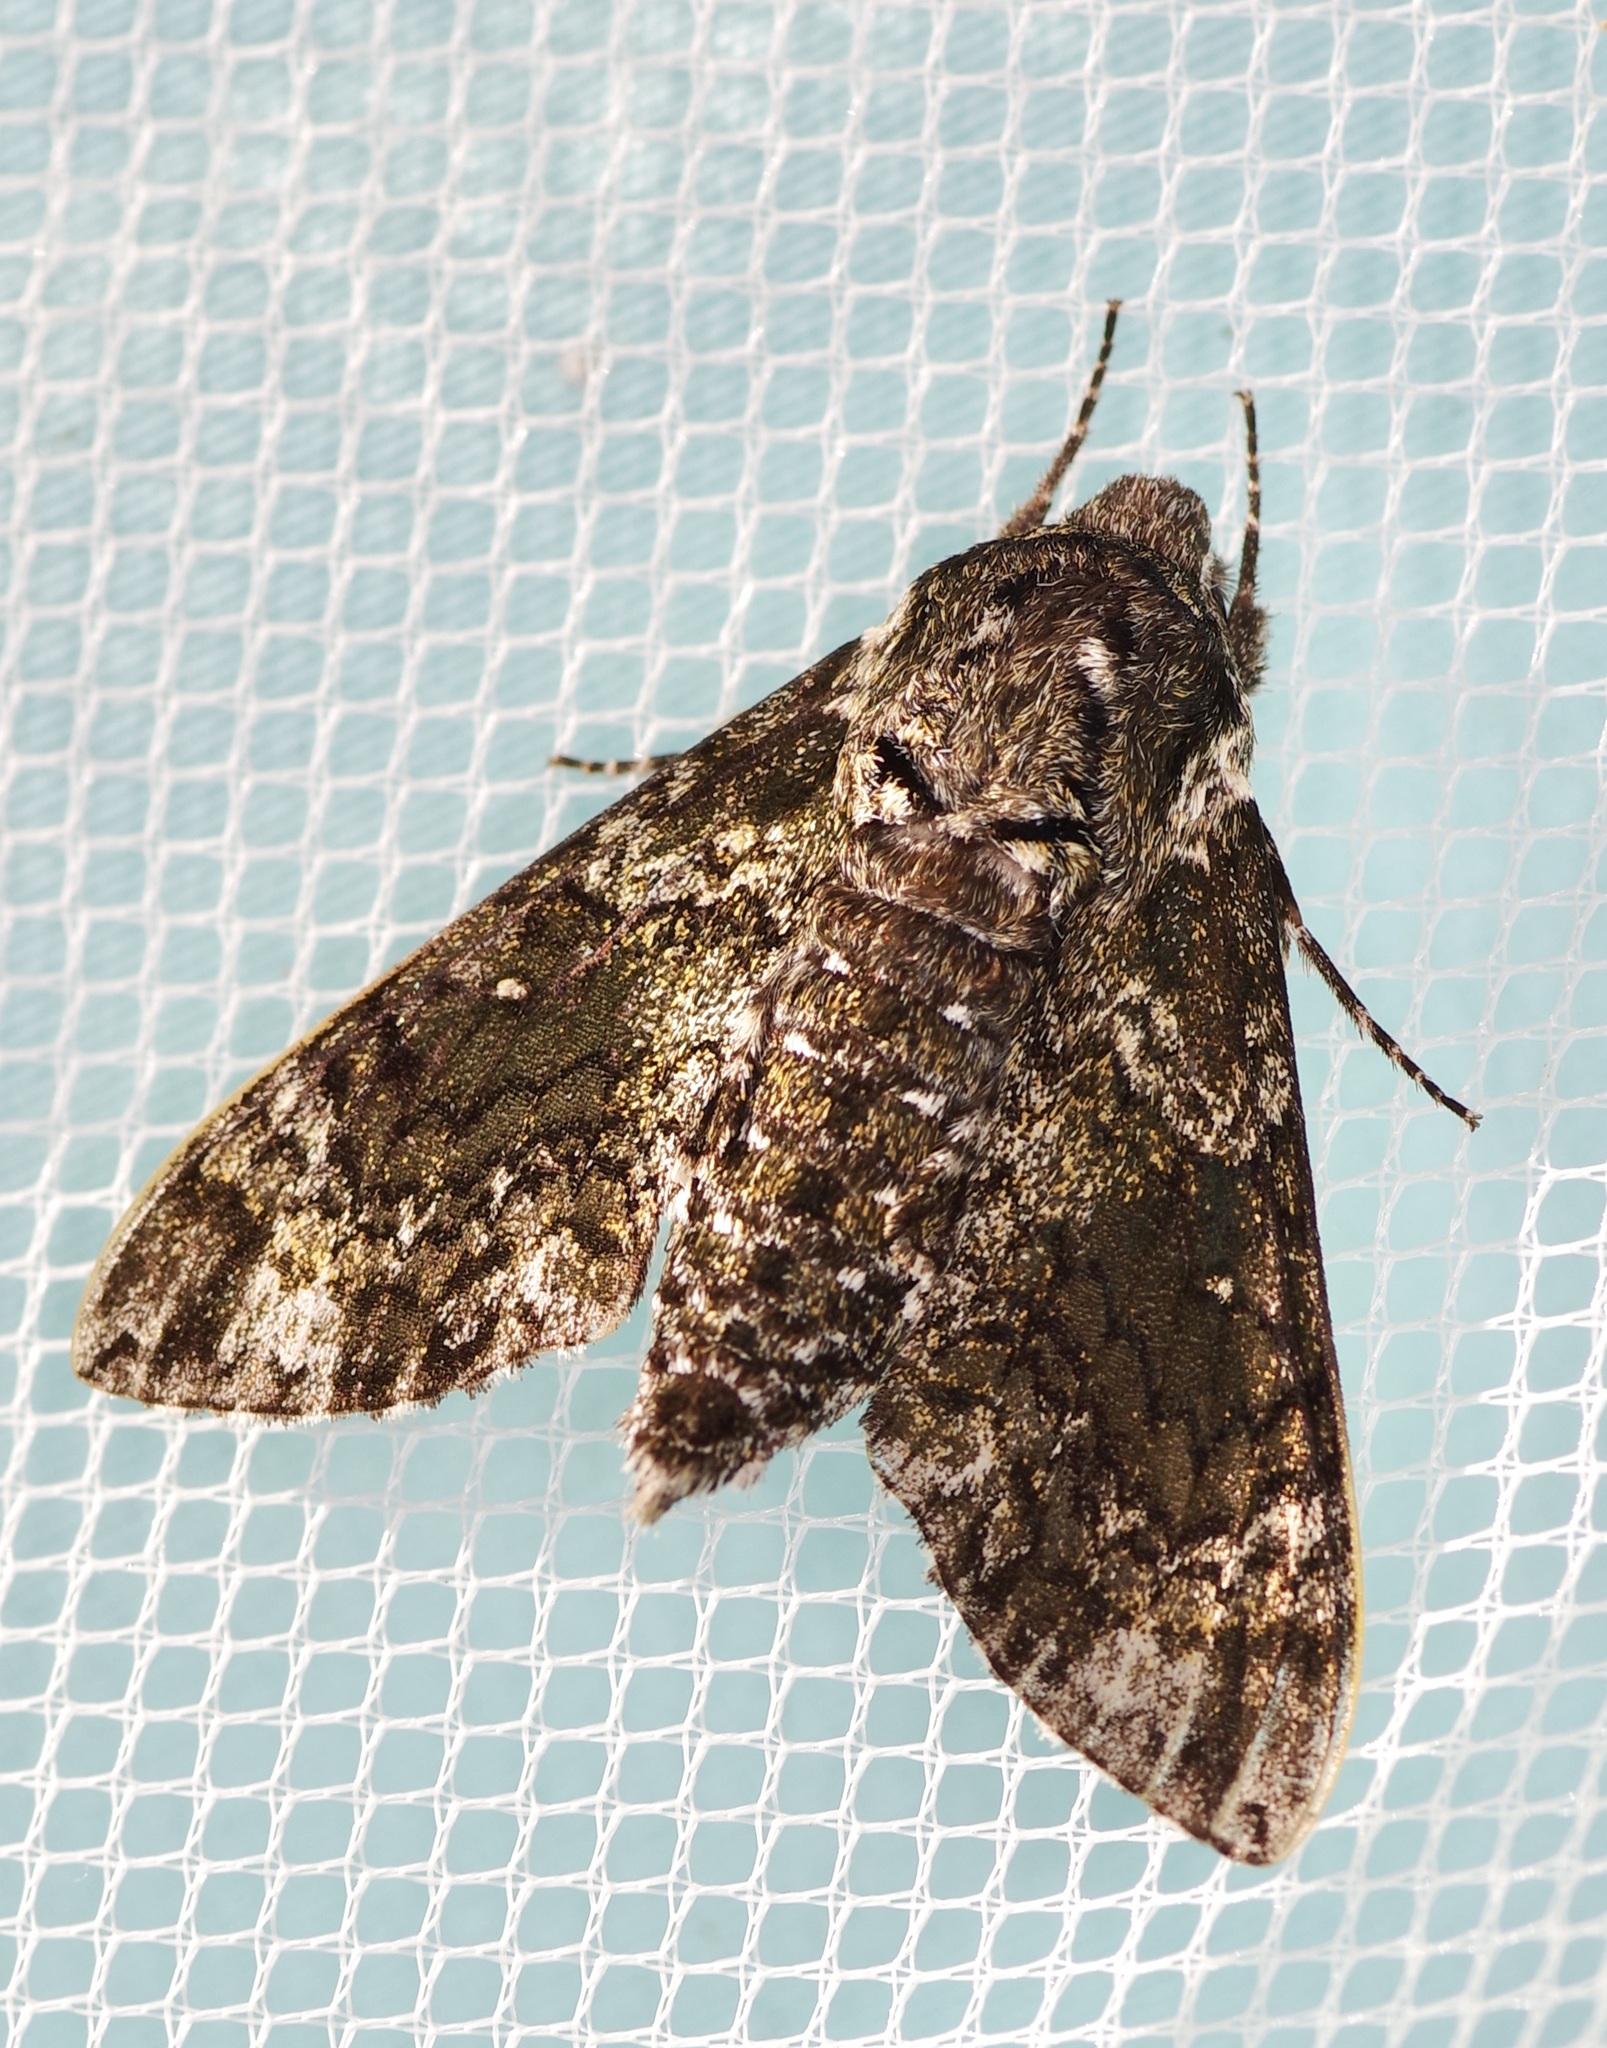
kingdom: Animalia
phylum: Arthropoda
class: Insecta
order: Lepidoptera
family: Sphingidae
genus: Dolba
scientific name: Dolba hyloeus
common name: Pawpaw sphinx
